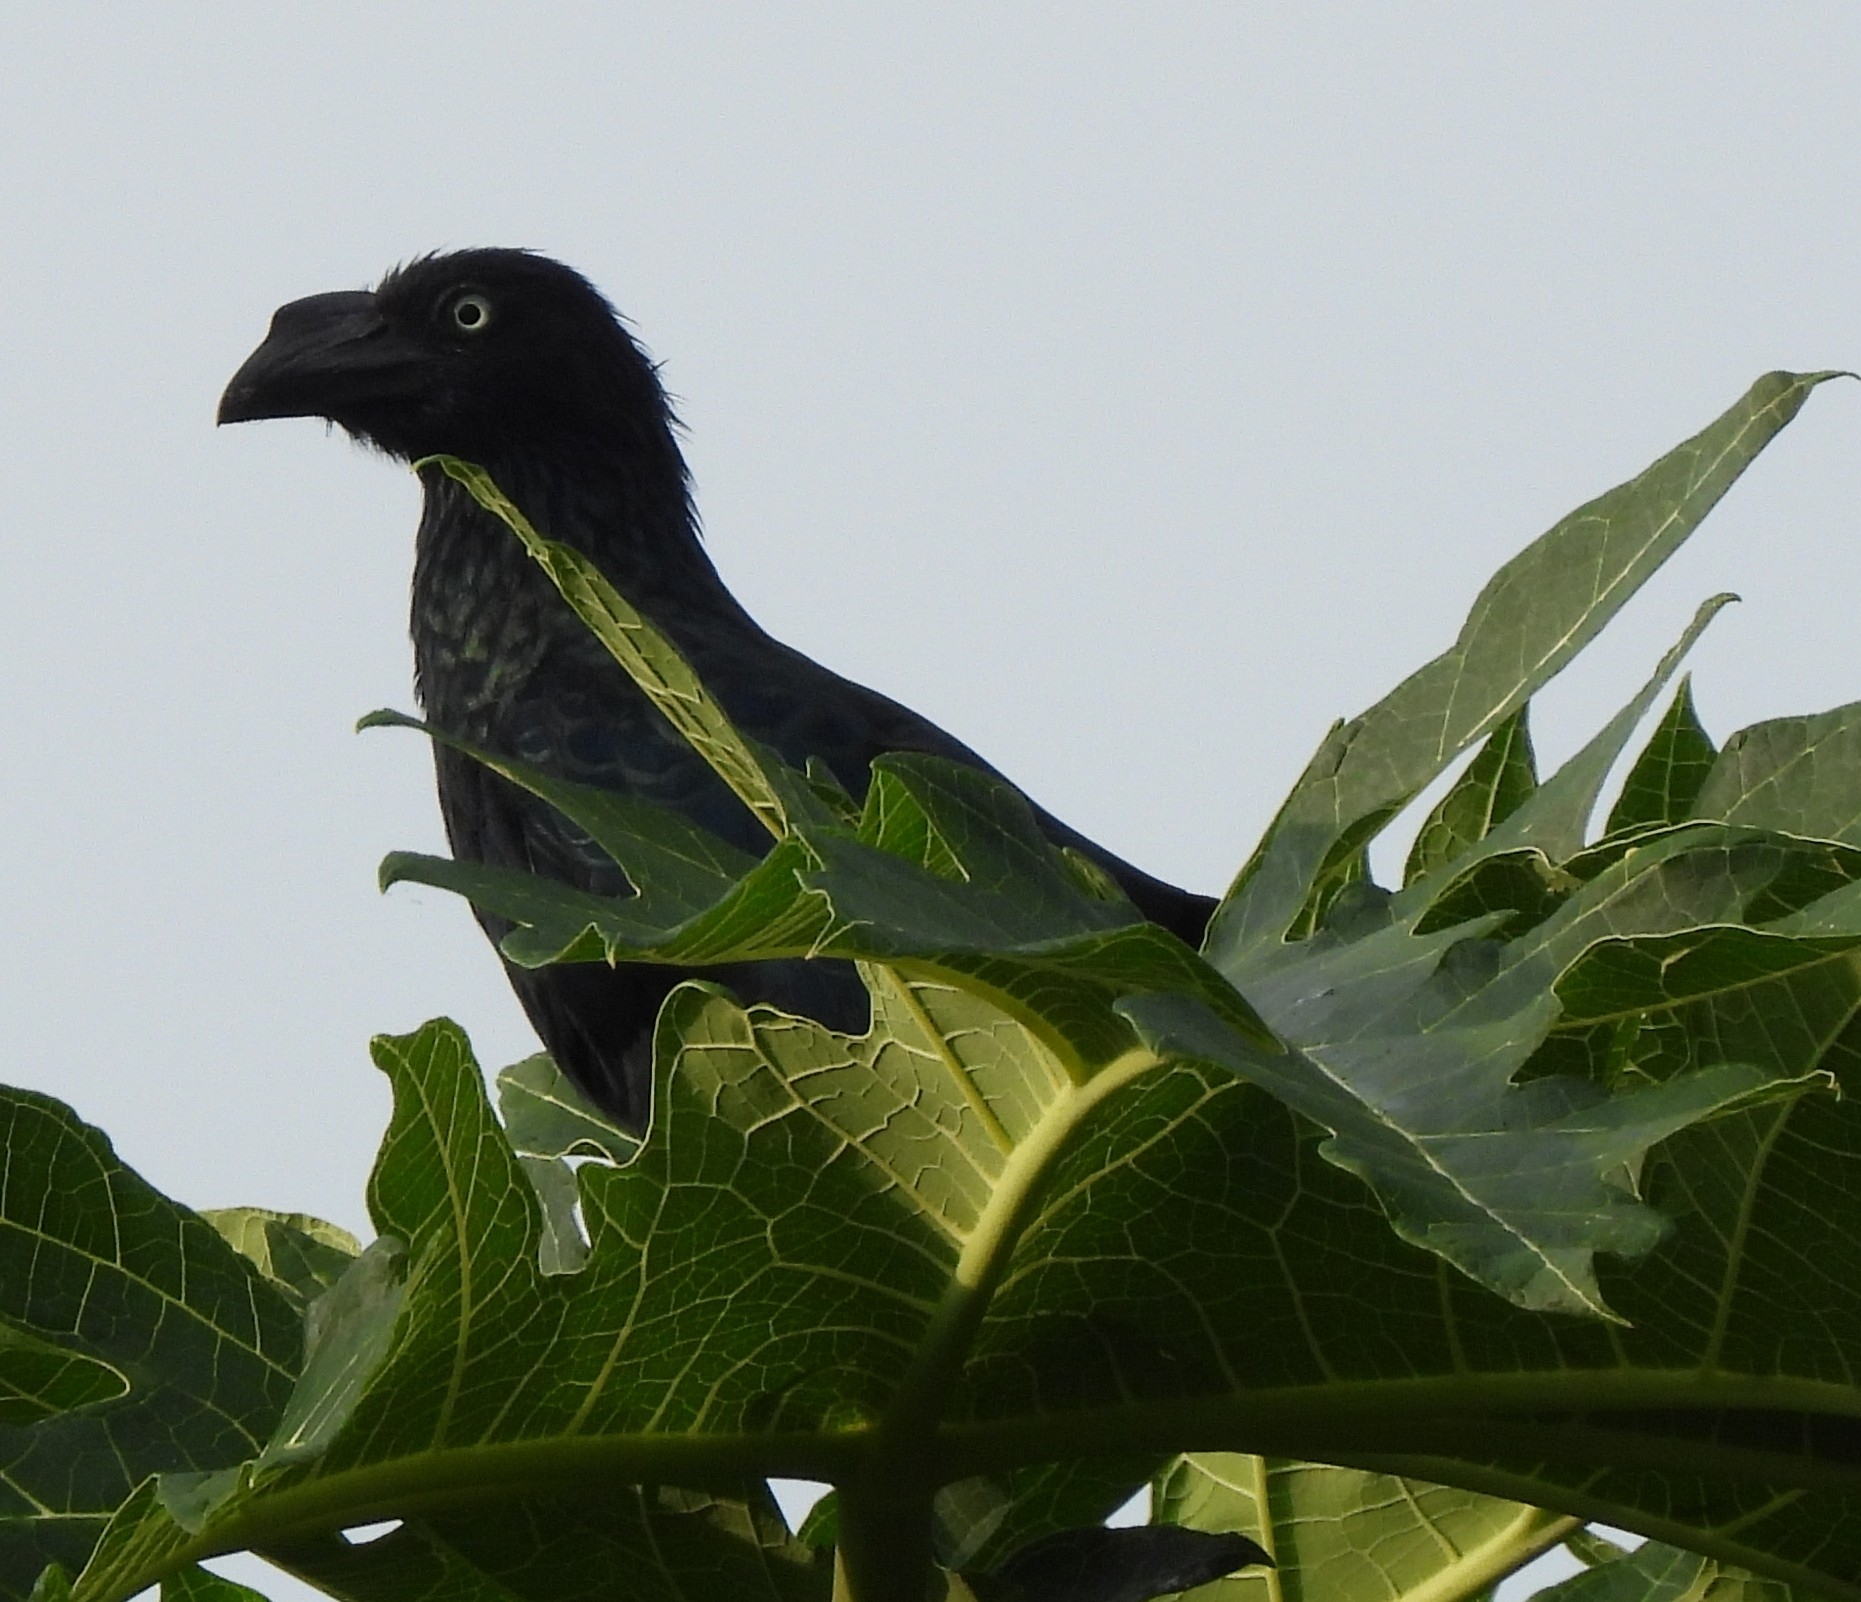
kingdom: Animalia
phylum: Chordata
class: Aves
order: Cuculiformes
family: Cuculidae
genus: Crotophaga
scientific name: Crotophaga major
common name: Greater ani
